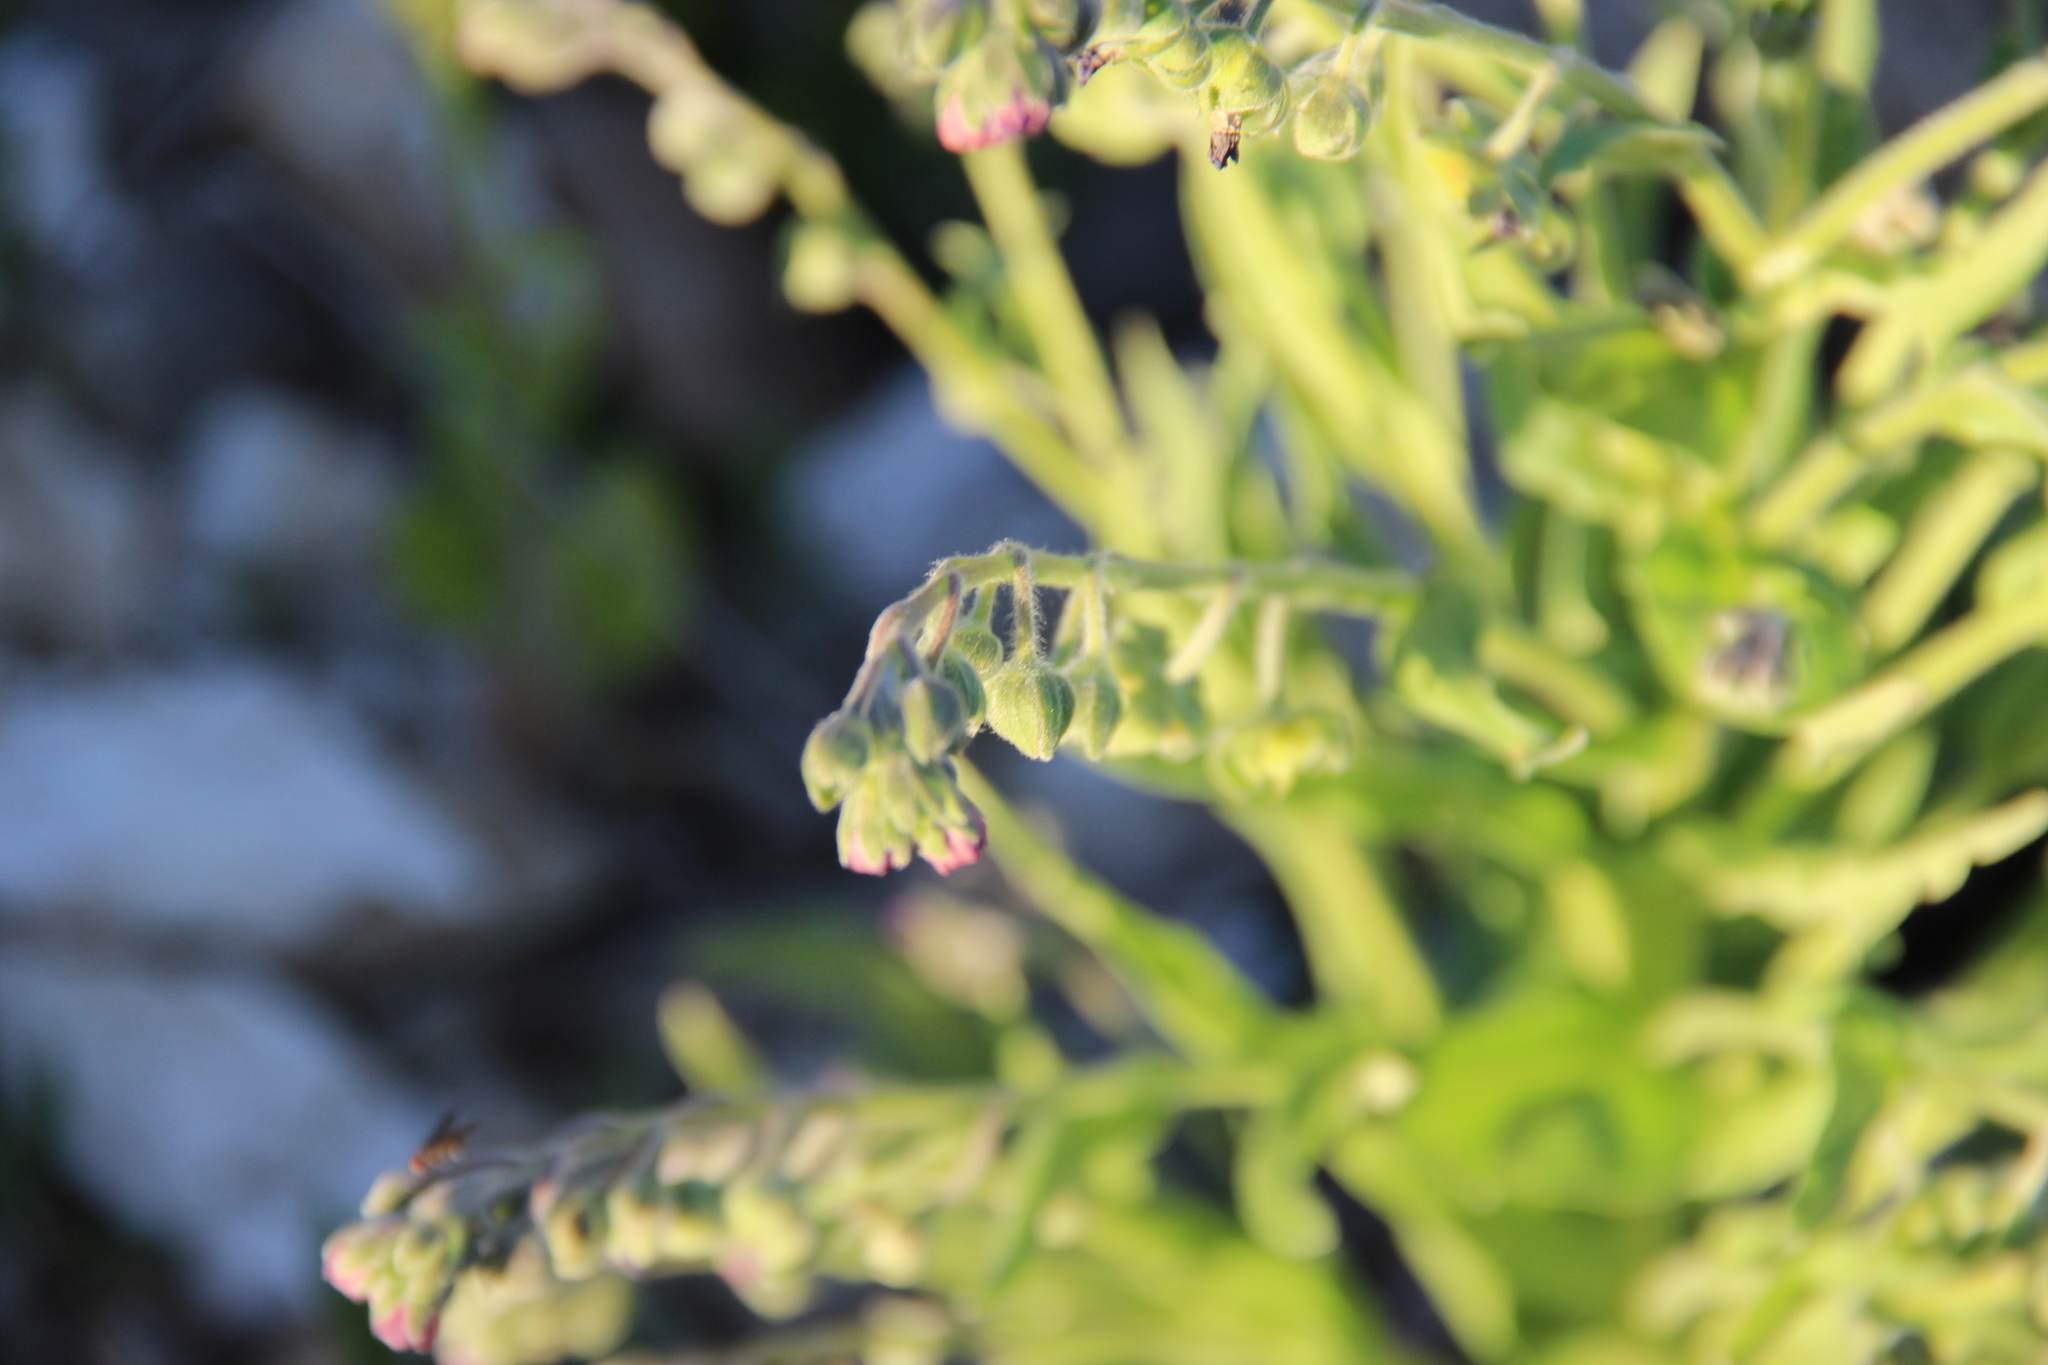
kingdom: Plantae
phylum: Tracheophyta
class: Magnoliopsida
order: Boraginales
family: Boraginaceae
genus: Cynoglossum
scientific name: Cynoglossum officinale
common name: Hound's-tongue
